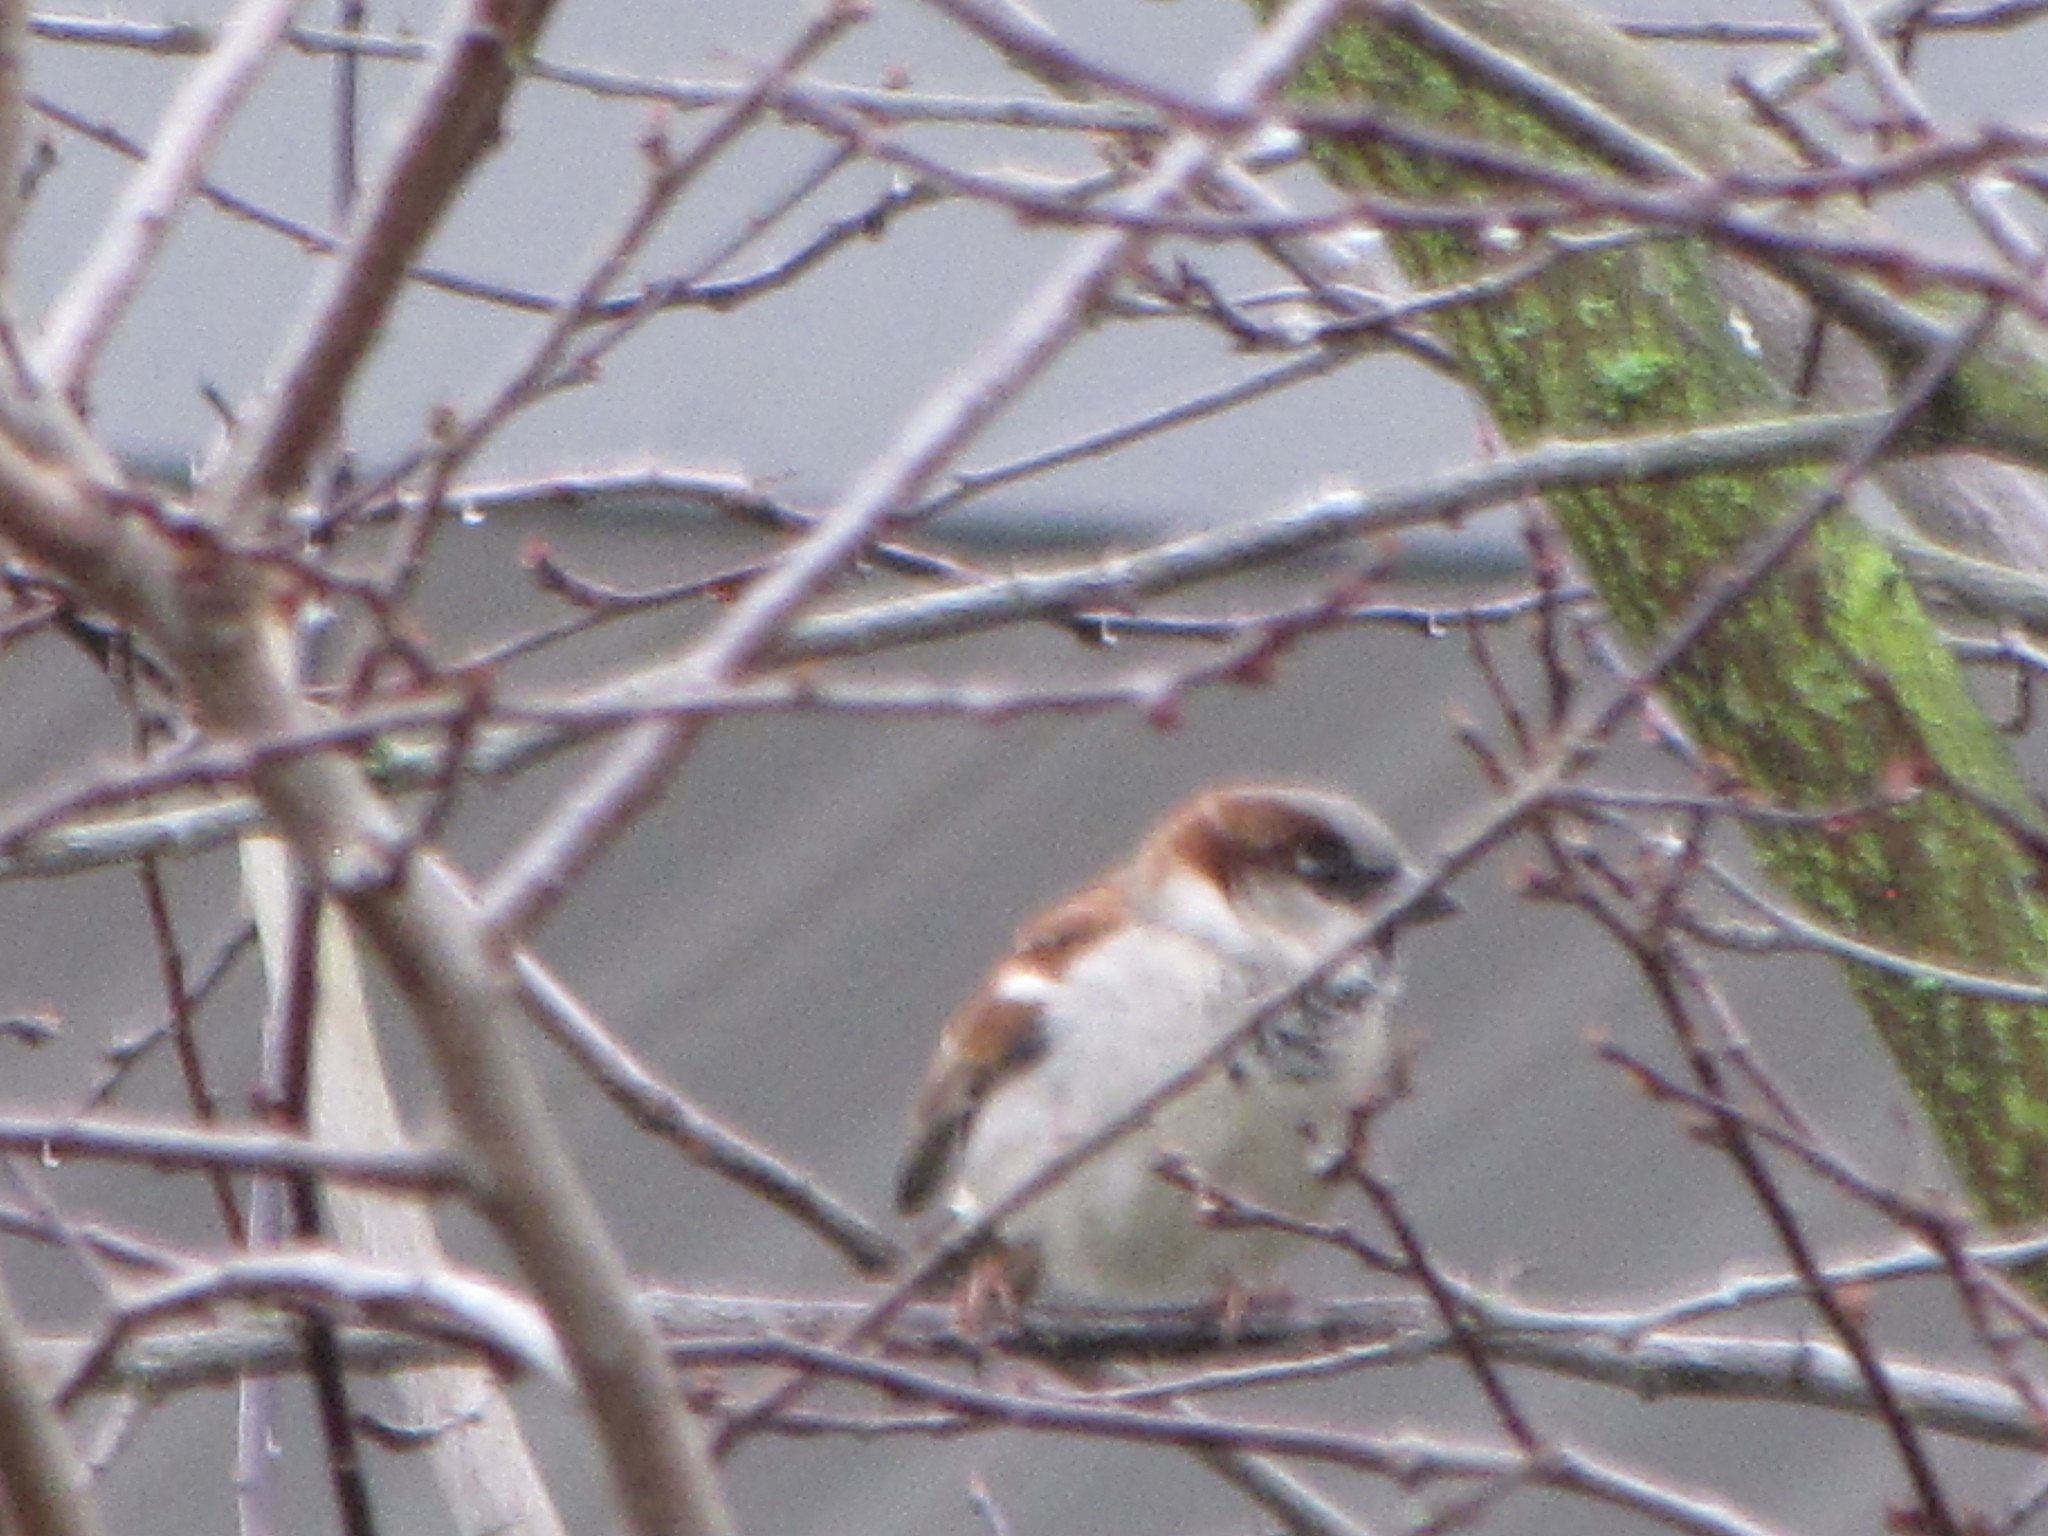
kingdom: Animalia
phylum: Chordata
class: Aves
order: Passeriformes
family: Passeridae
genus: Passer
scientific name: Passer domesticus
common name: House sparrow
